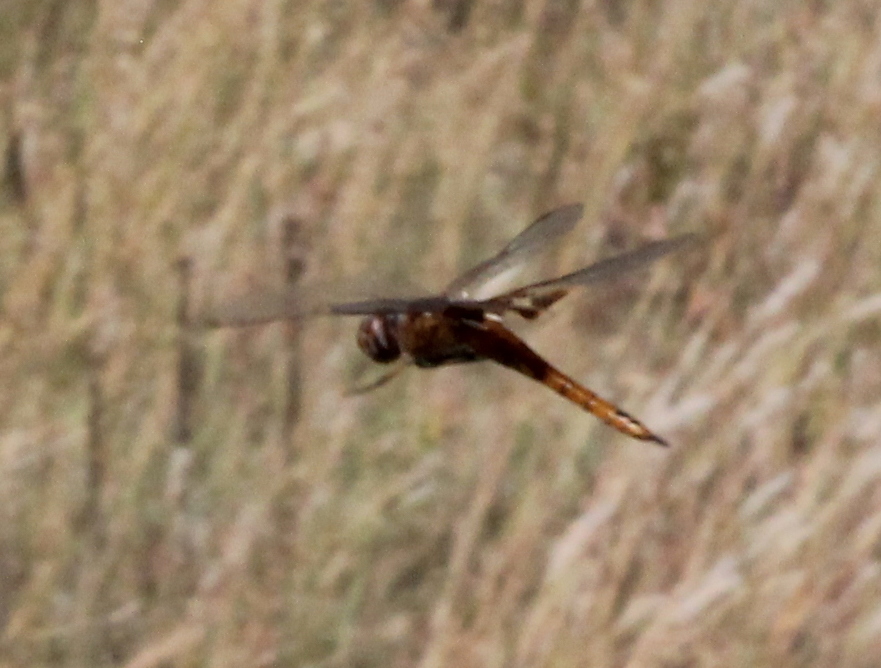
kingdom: Animalia
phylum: Arthropoda
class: Insecta
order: Odonata
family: Libellulidae
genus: Tramea
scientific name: Tramea onusta
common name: Red saddlebags
